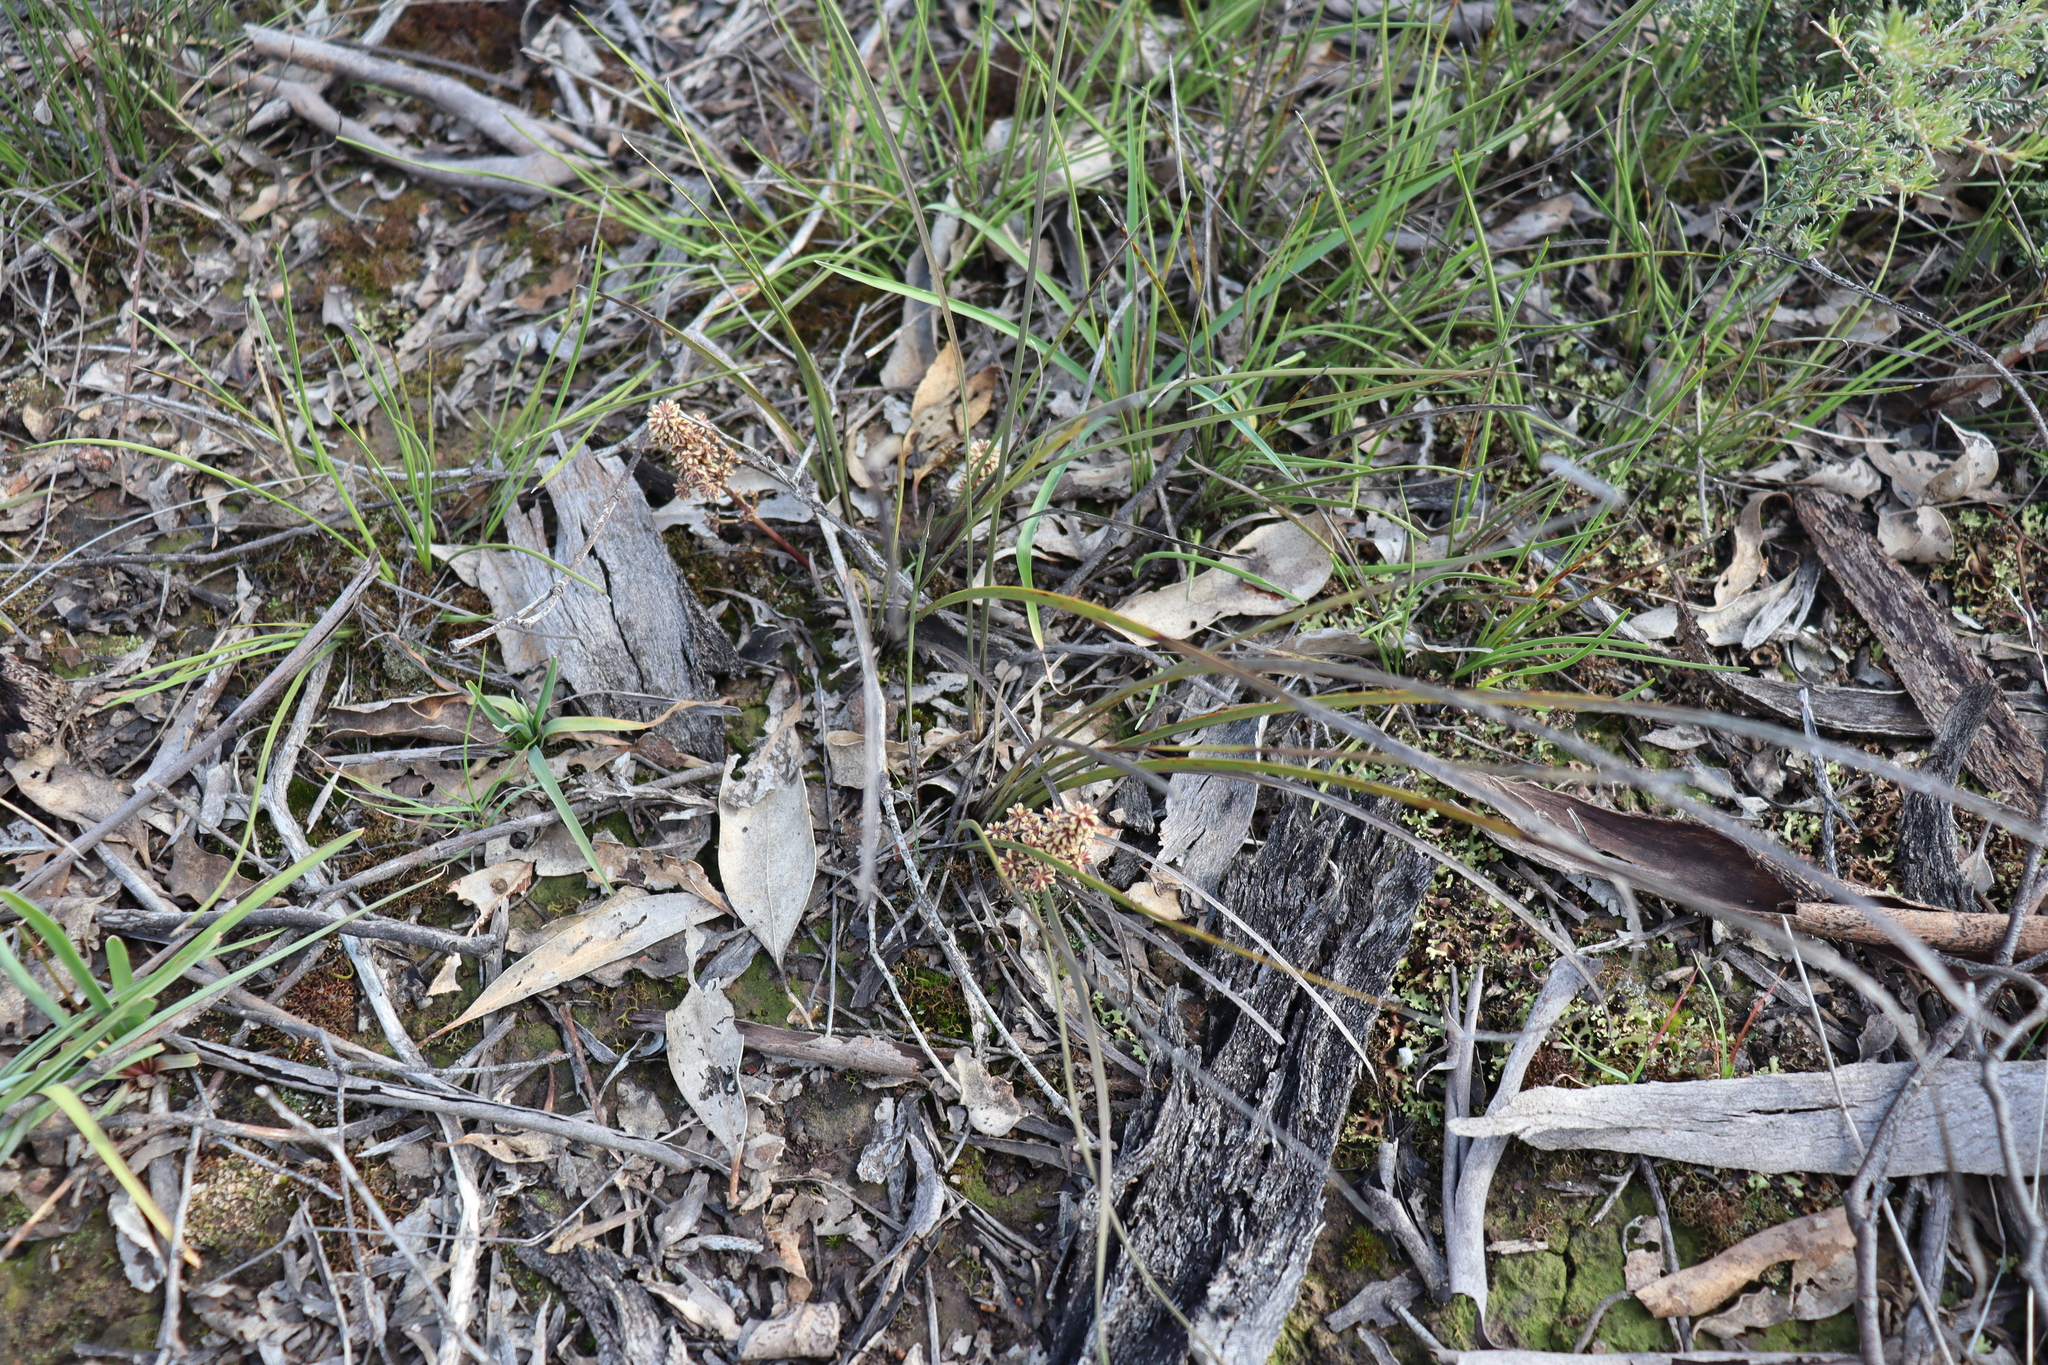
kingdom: Plantae
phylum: Tracheophyta
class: Liliopsida
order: Asparagales
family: Asparagaceae
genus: Lomandra
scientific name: Lomandra multiflora
